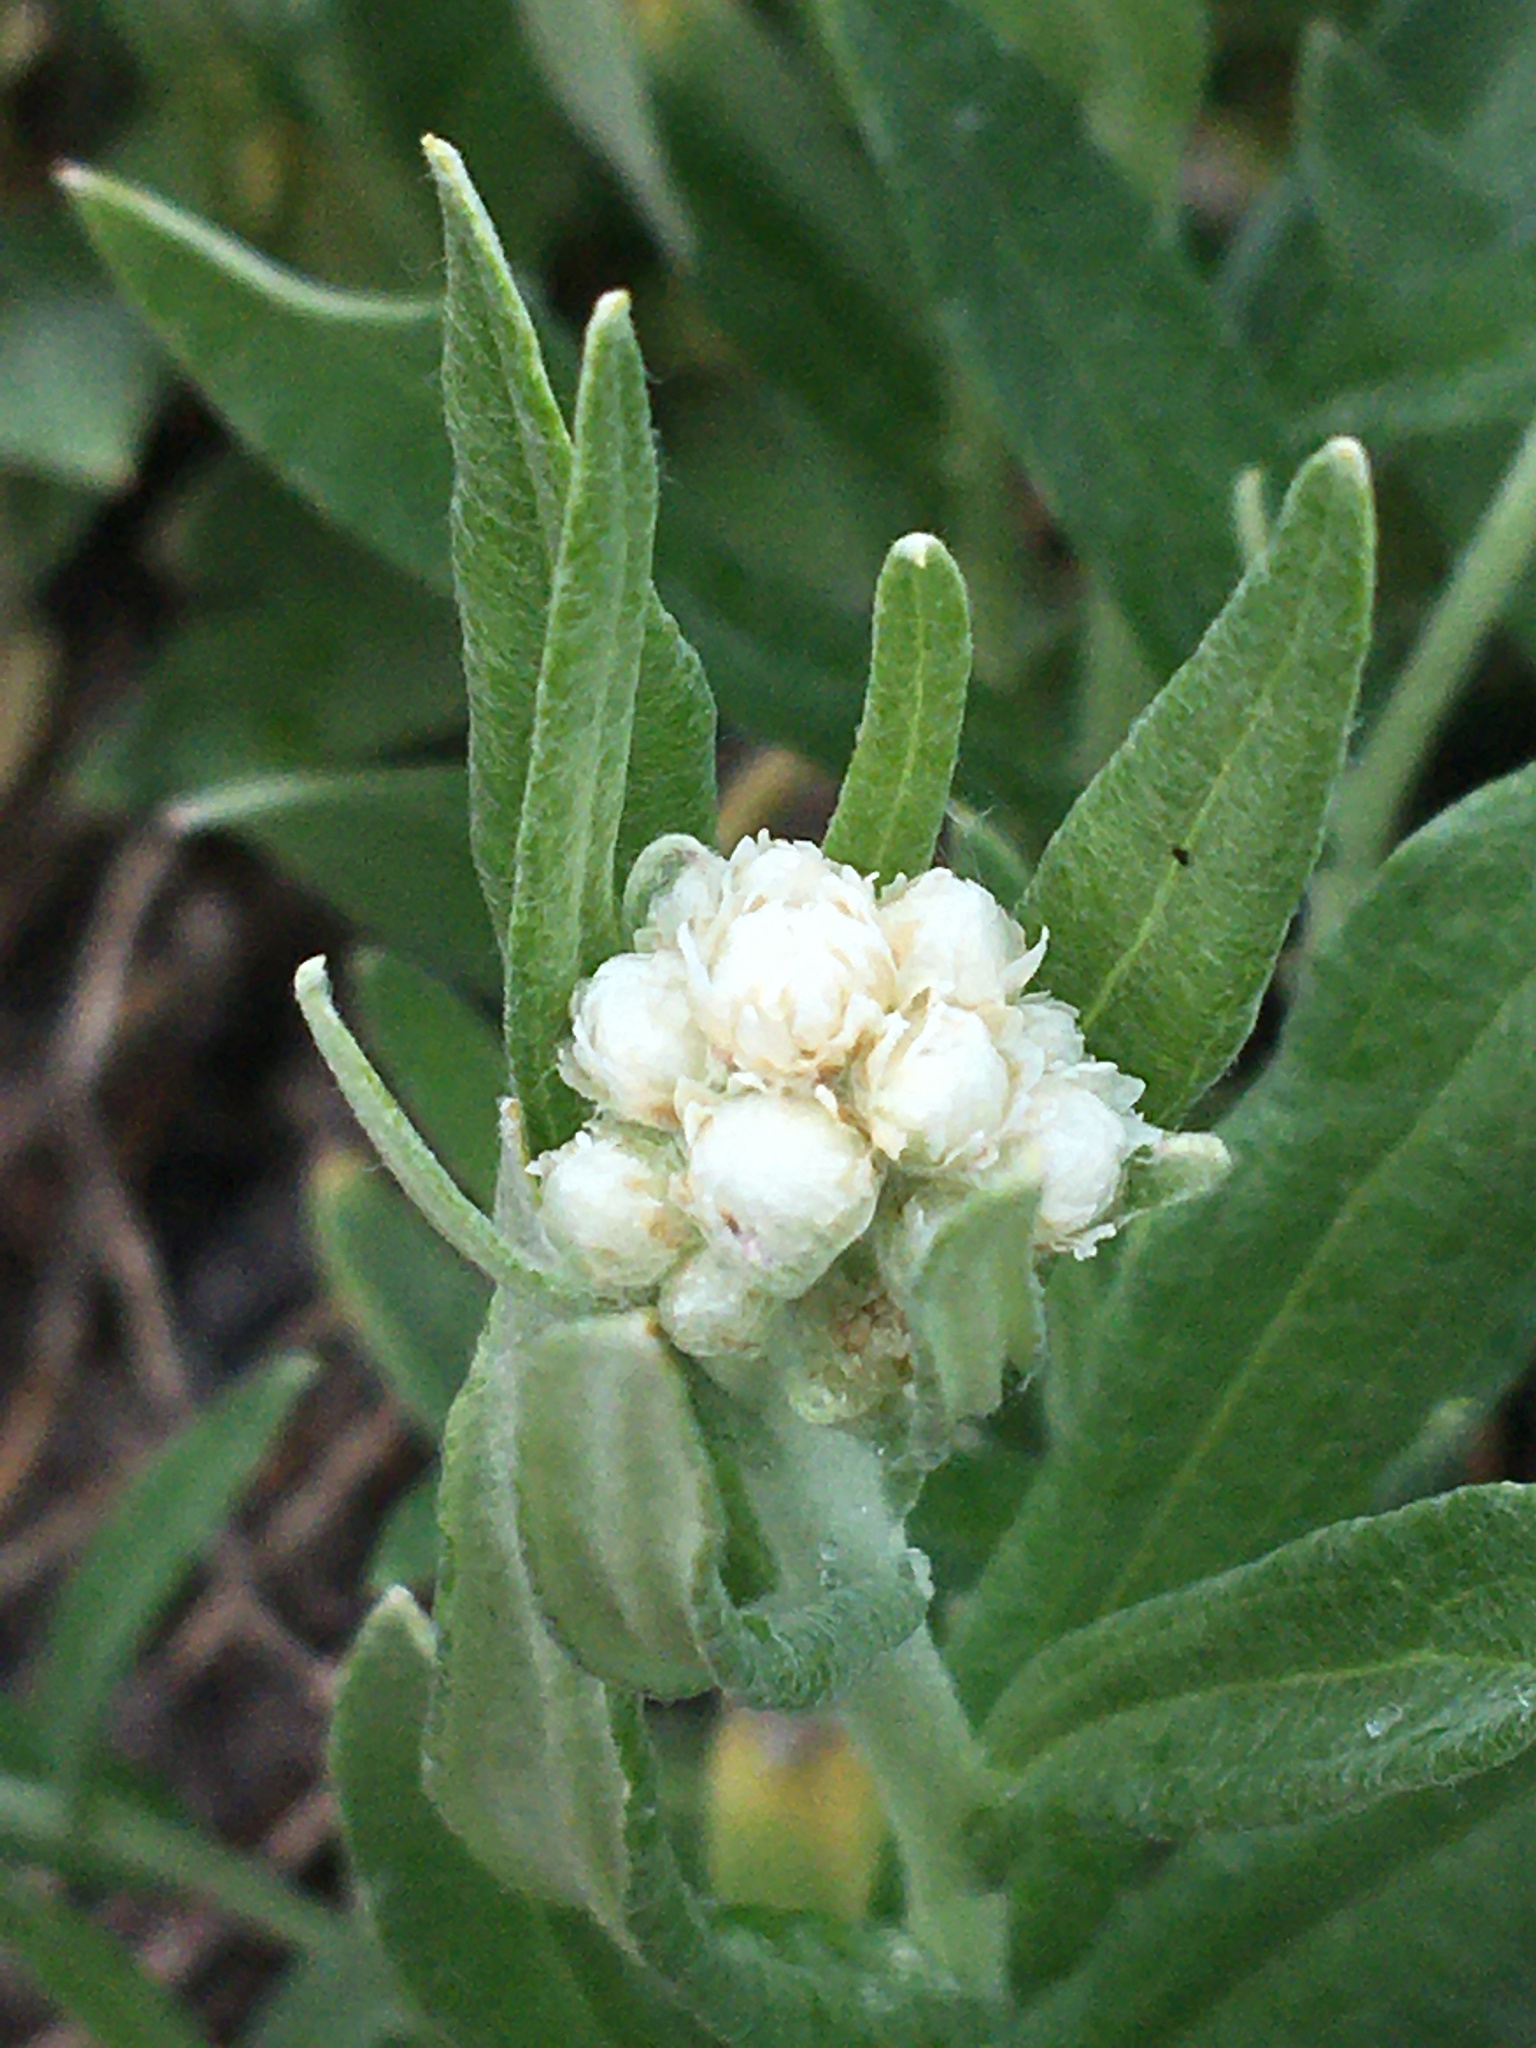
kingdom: Plantae
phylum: Tracheophyta
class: Magnoliopsida
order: Asterales
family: Asteraceae
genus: Anaphalis
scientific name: Anaphalis margaritacea
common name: Pearly everlasting
